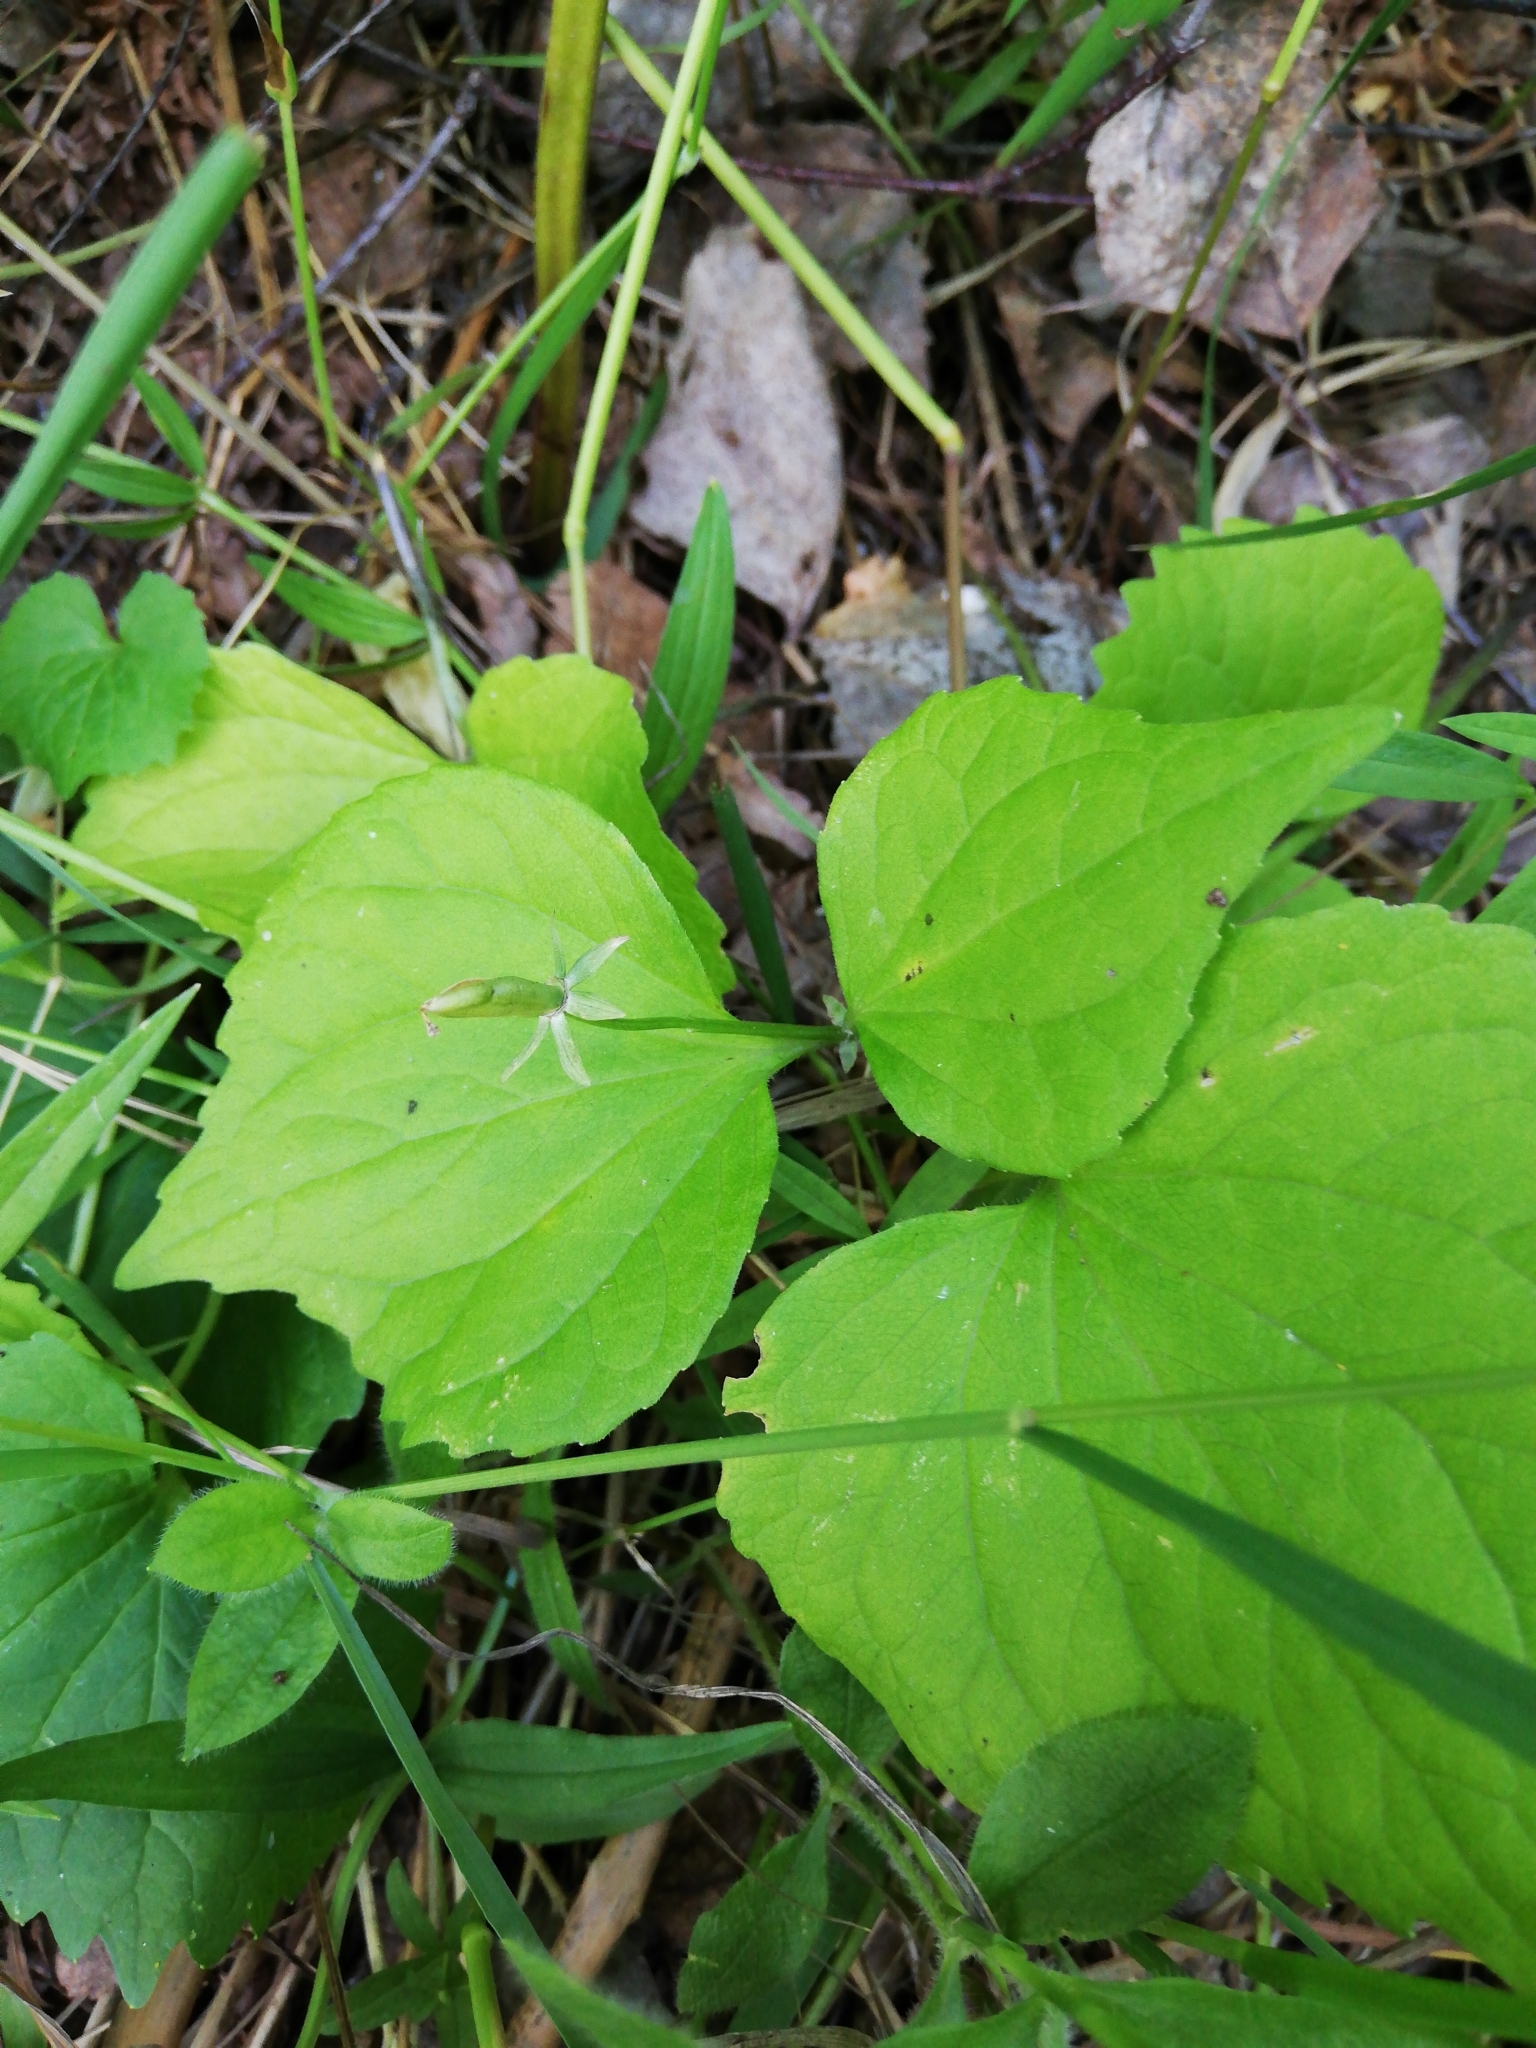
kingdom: Plantae
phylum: Tracheophyta
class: Magnoliopsida
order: Malpighiales
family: Violaceae
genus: Viola
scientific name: Viola uniflora
